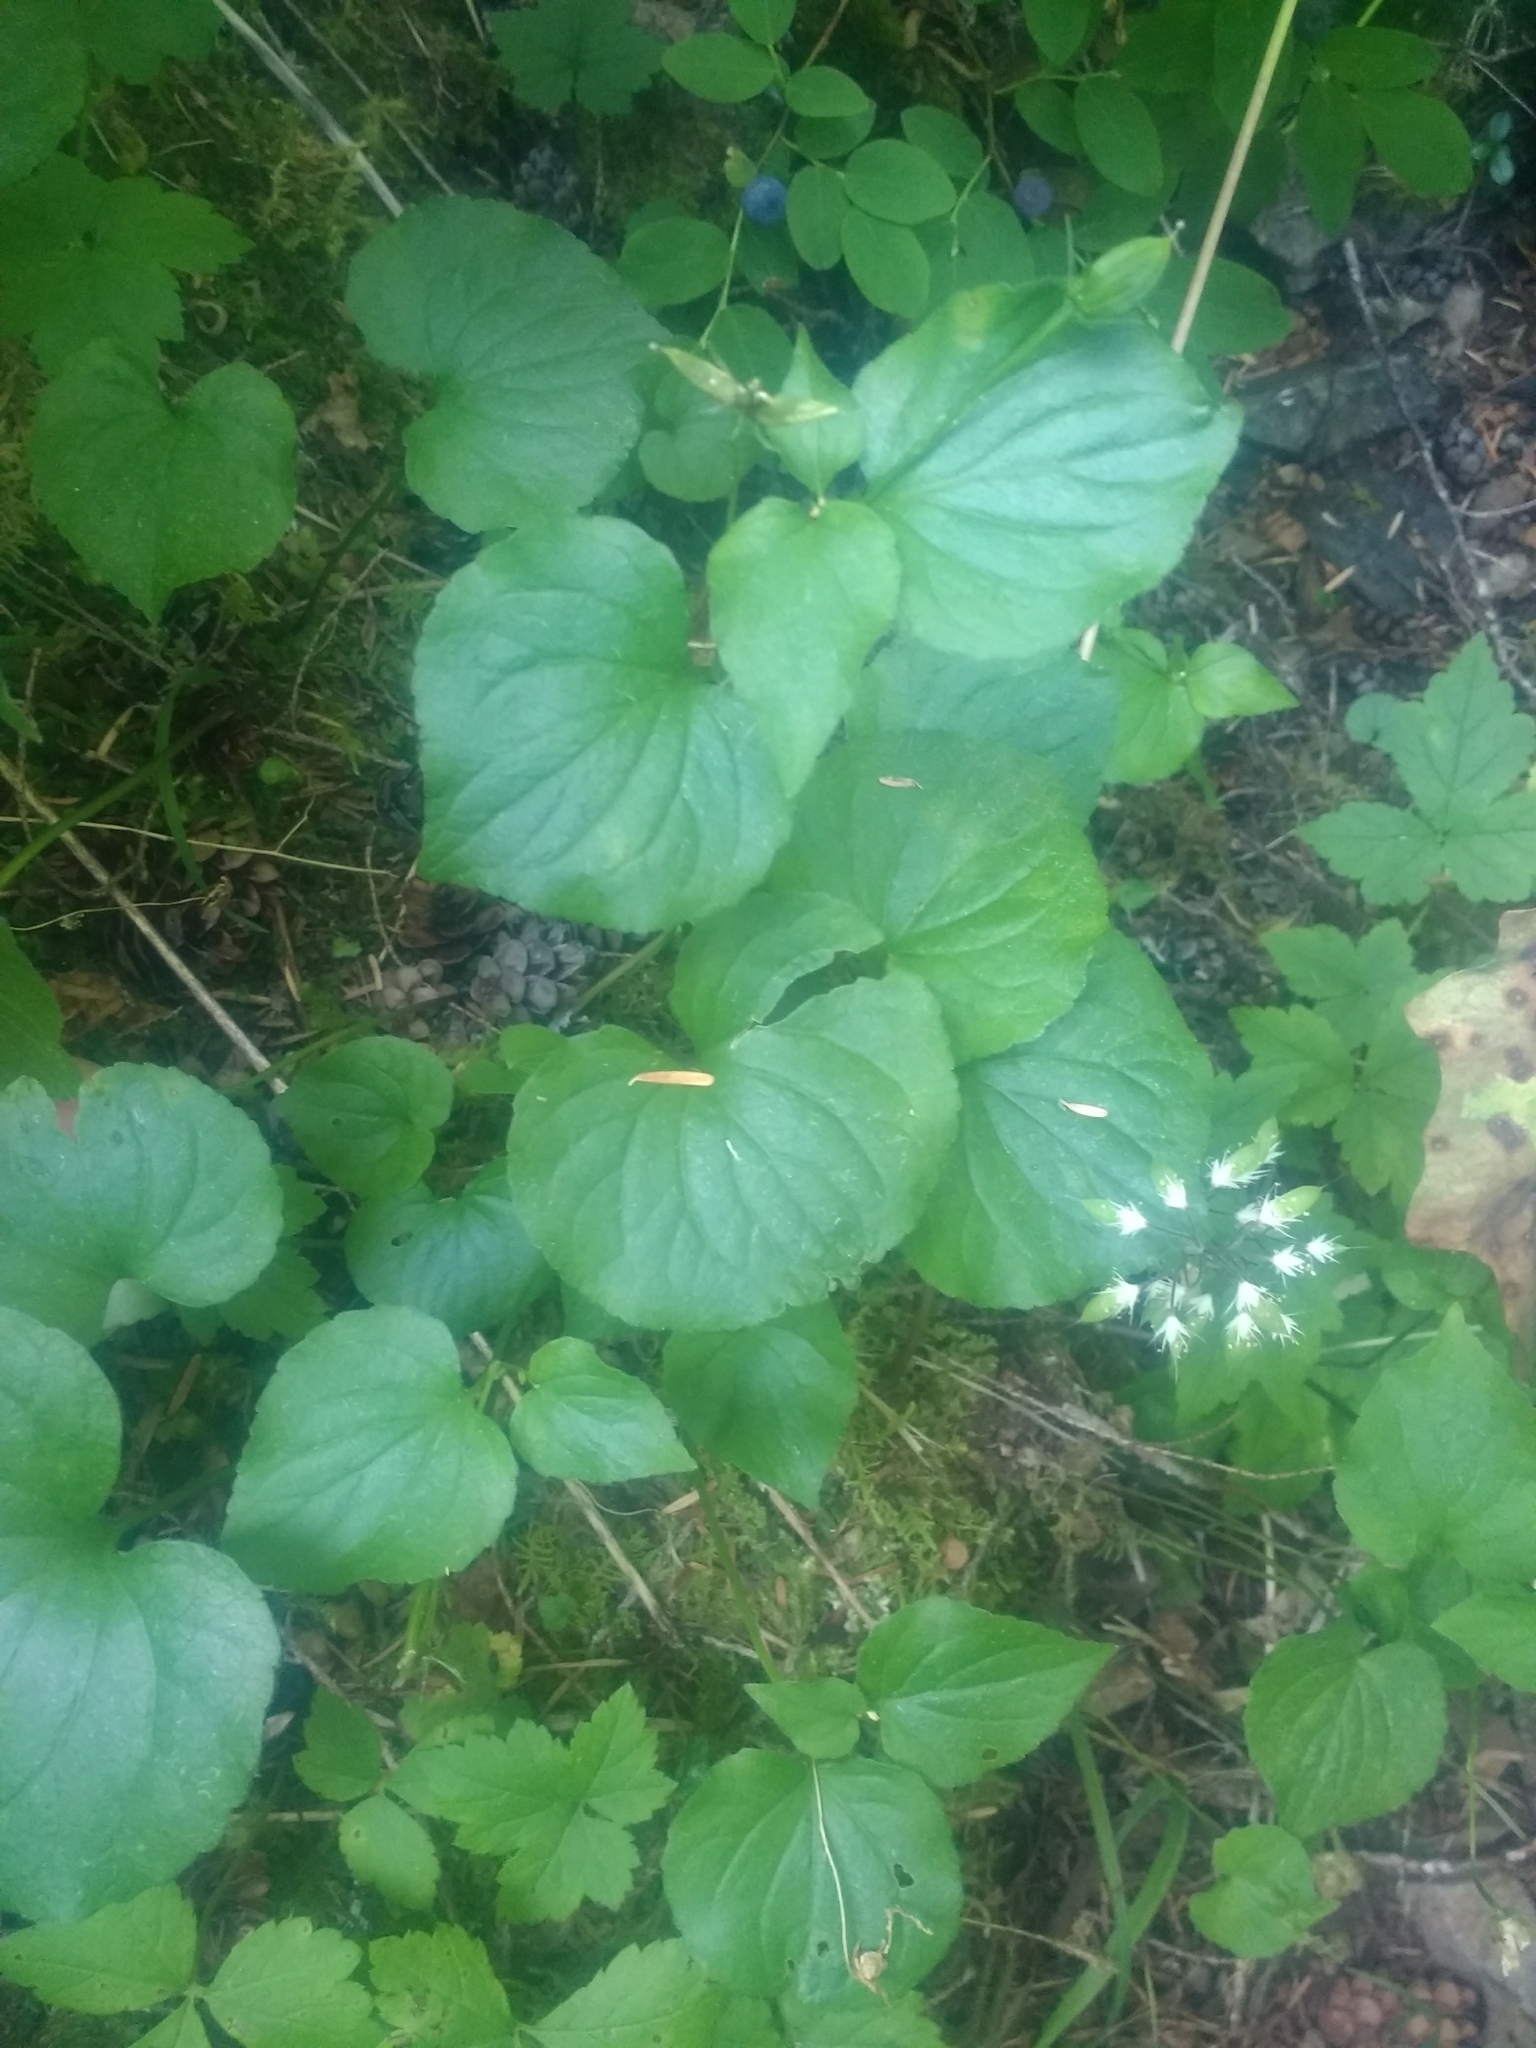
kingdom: Plantae
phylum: Tracheophyta
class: Magnoliopsida
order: Malpighiales
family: Violaceae
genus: Viola
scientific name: Viola glabella
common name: Stream violet
